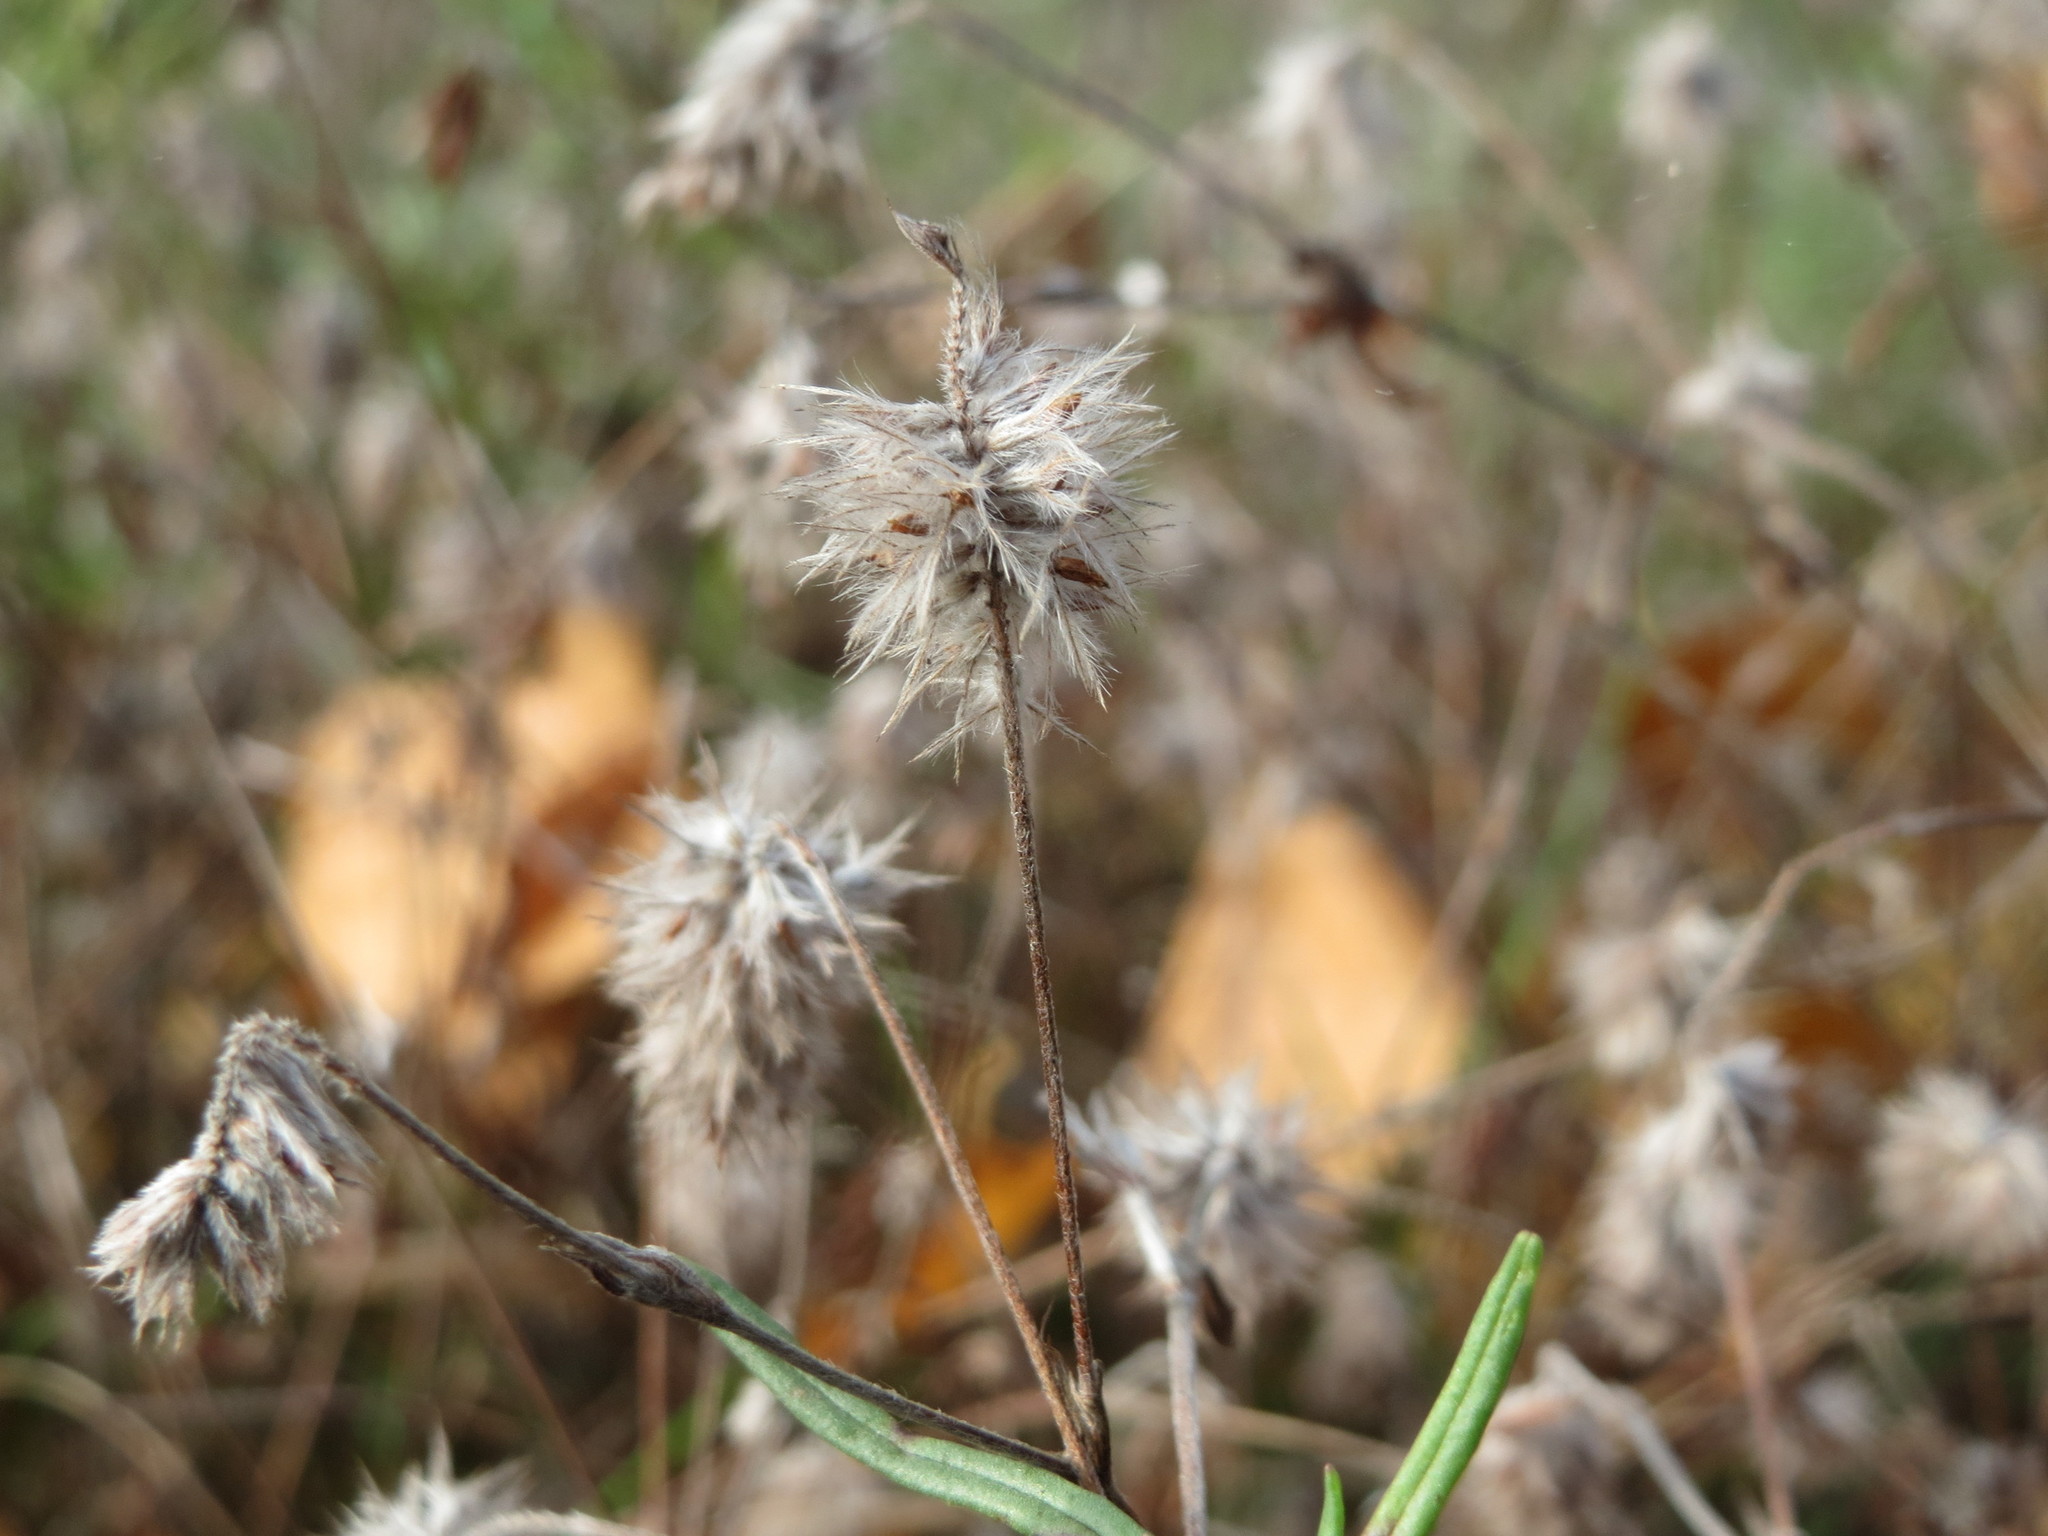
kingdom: Plantae
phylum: Tracheophyta
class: Magnoliopsida
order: Fabales
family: Fabaceae
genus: Trifolium
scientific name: Trifolium arvense
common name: Hare's-foot clover
